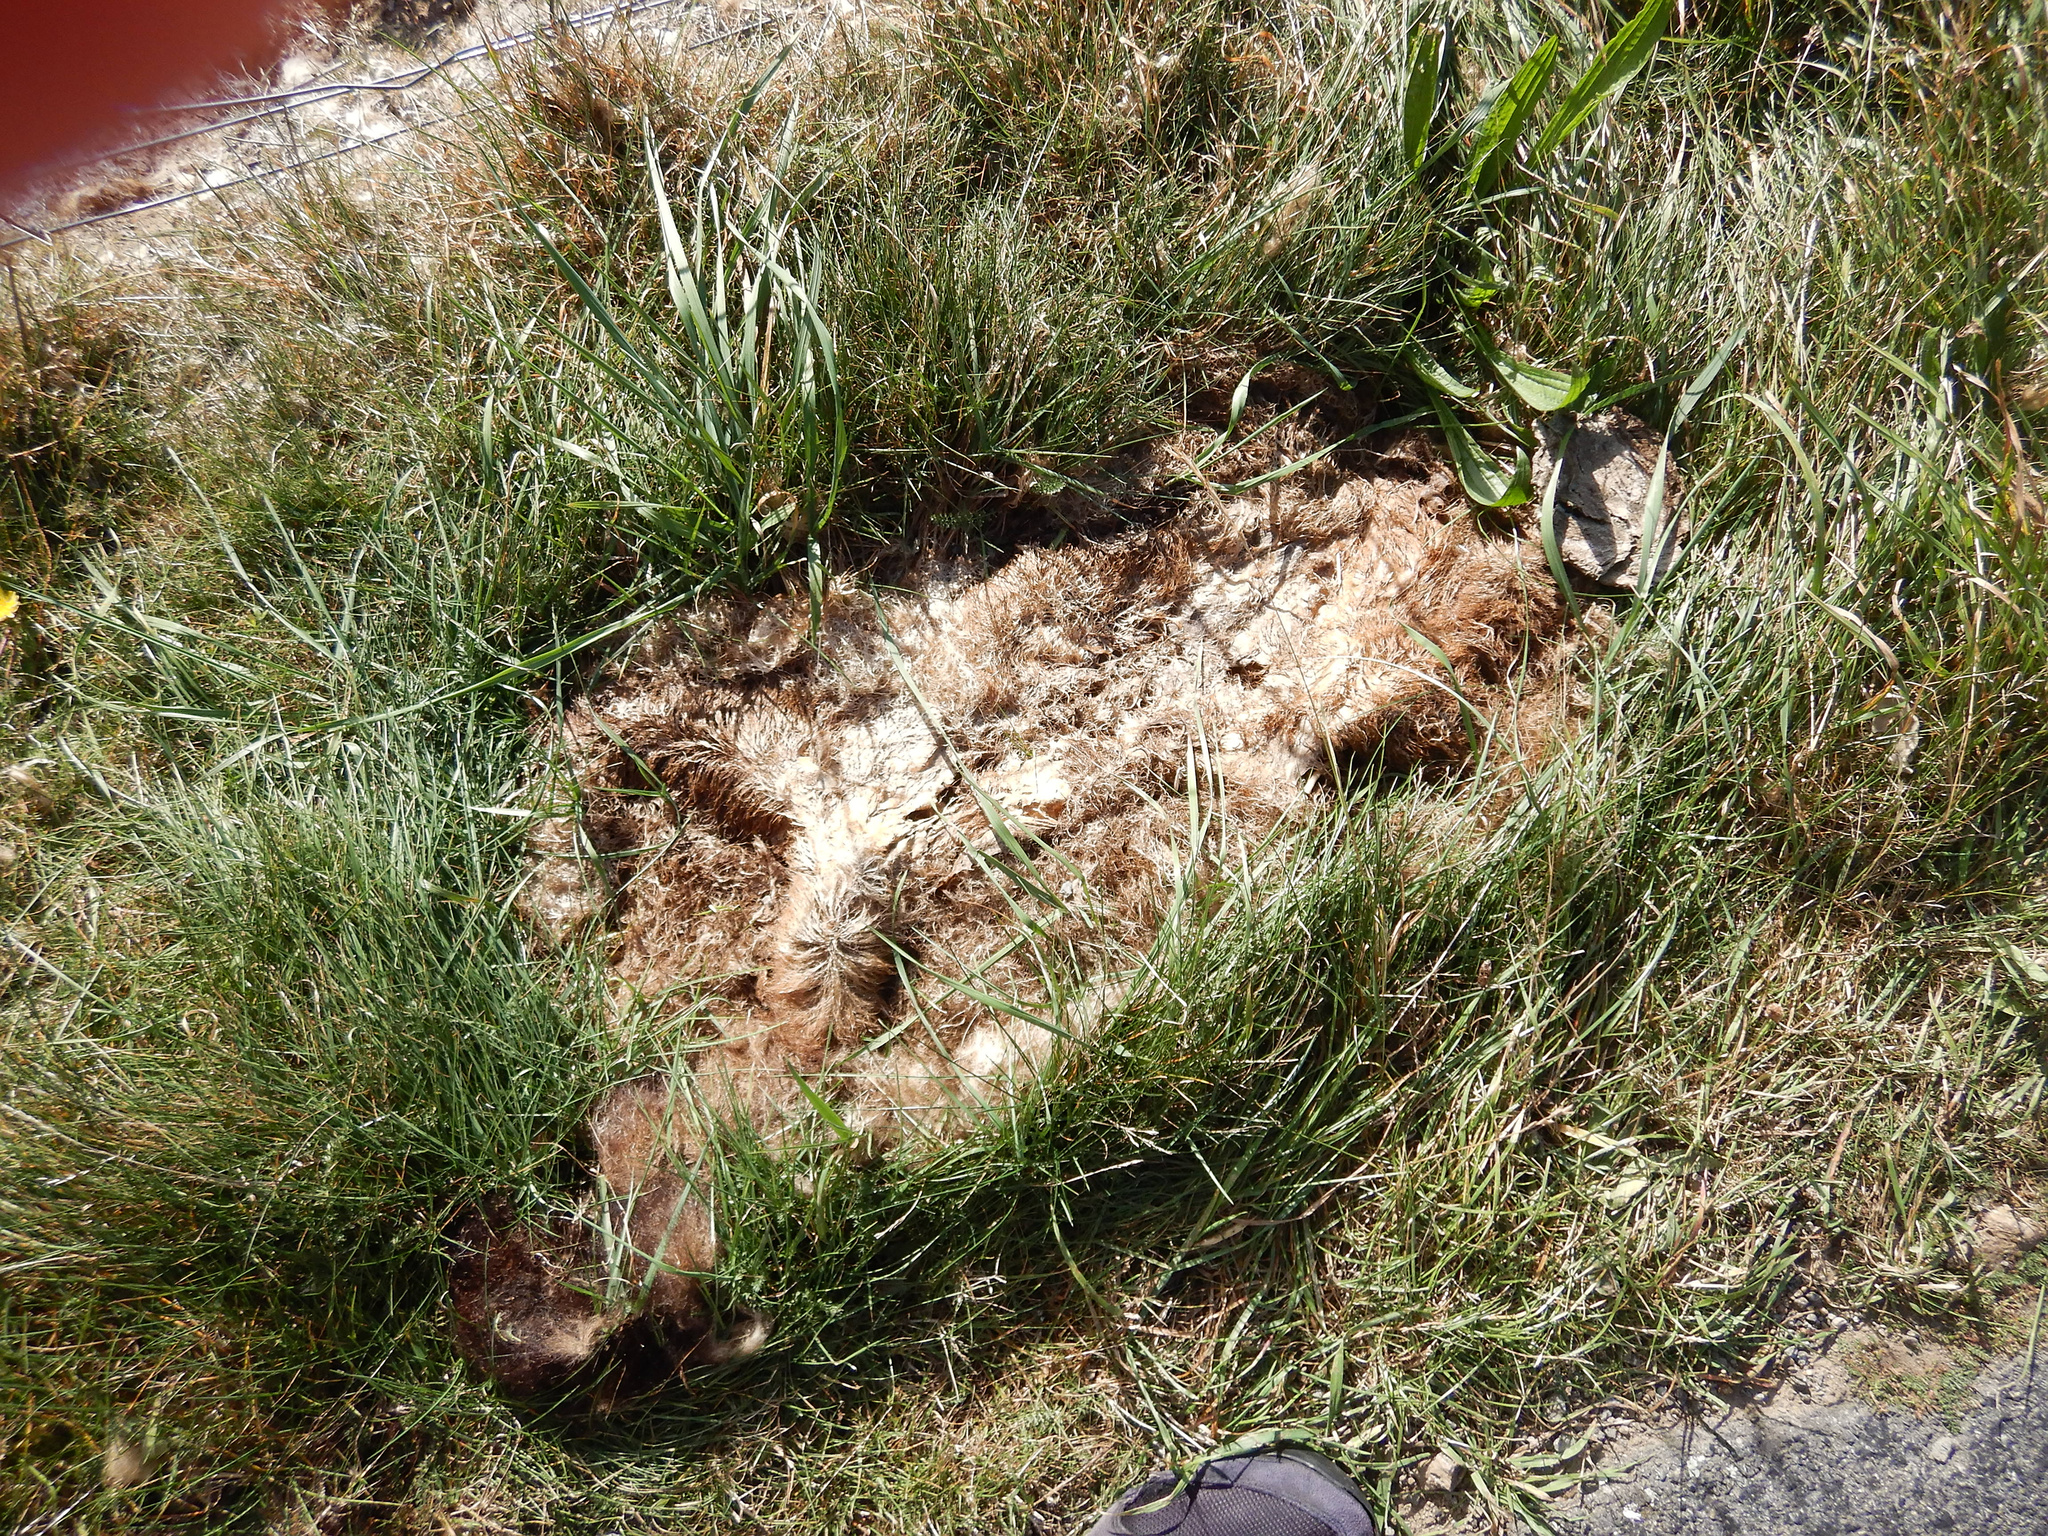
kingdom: Animalia
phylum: Chordata
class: Mammalia
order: Diprotodontia
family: Phalangeridae
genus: Trichosurus
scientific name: Trichosurus vulpecula
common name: Common brushtail
